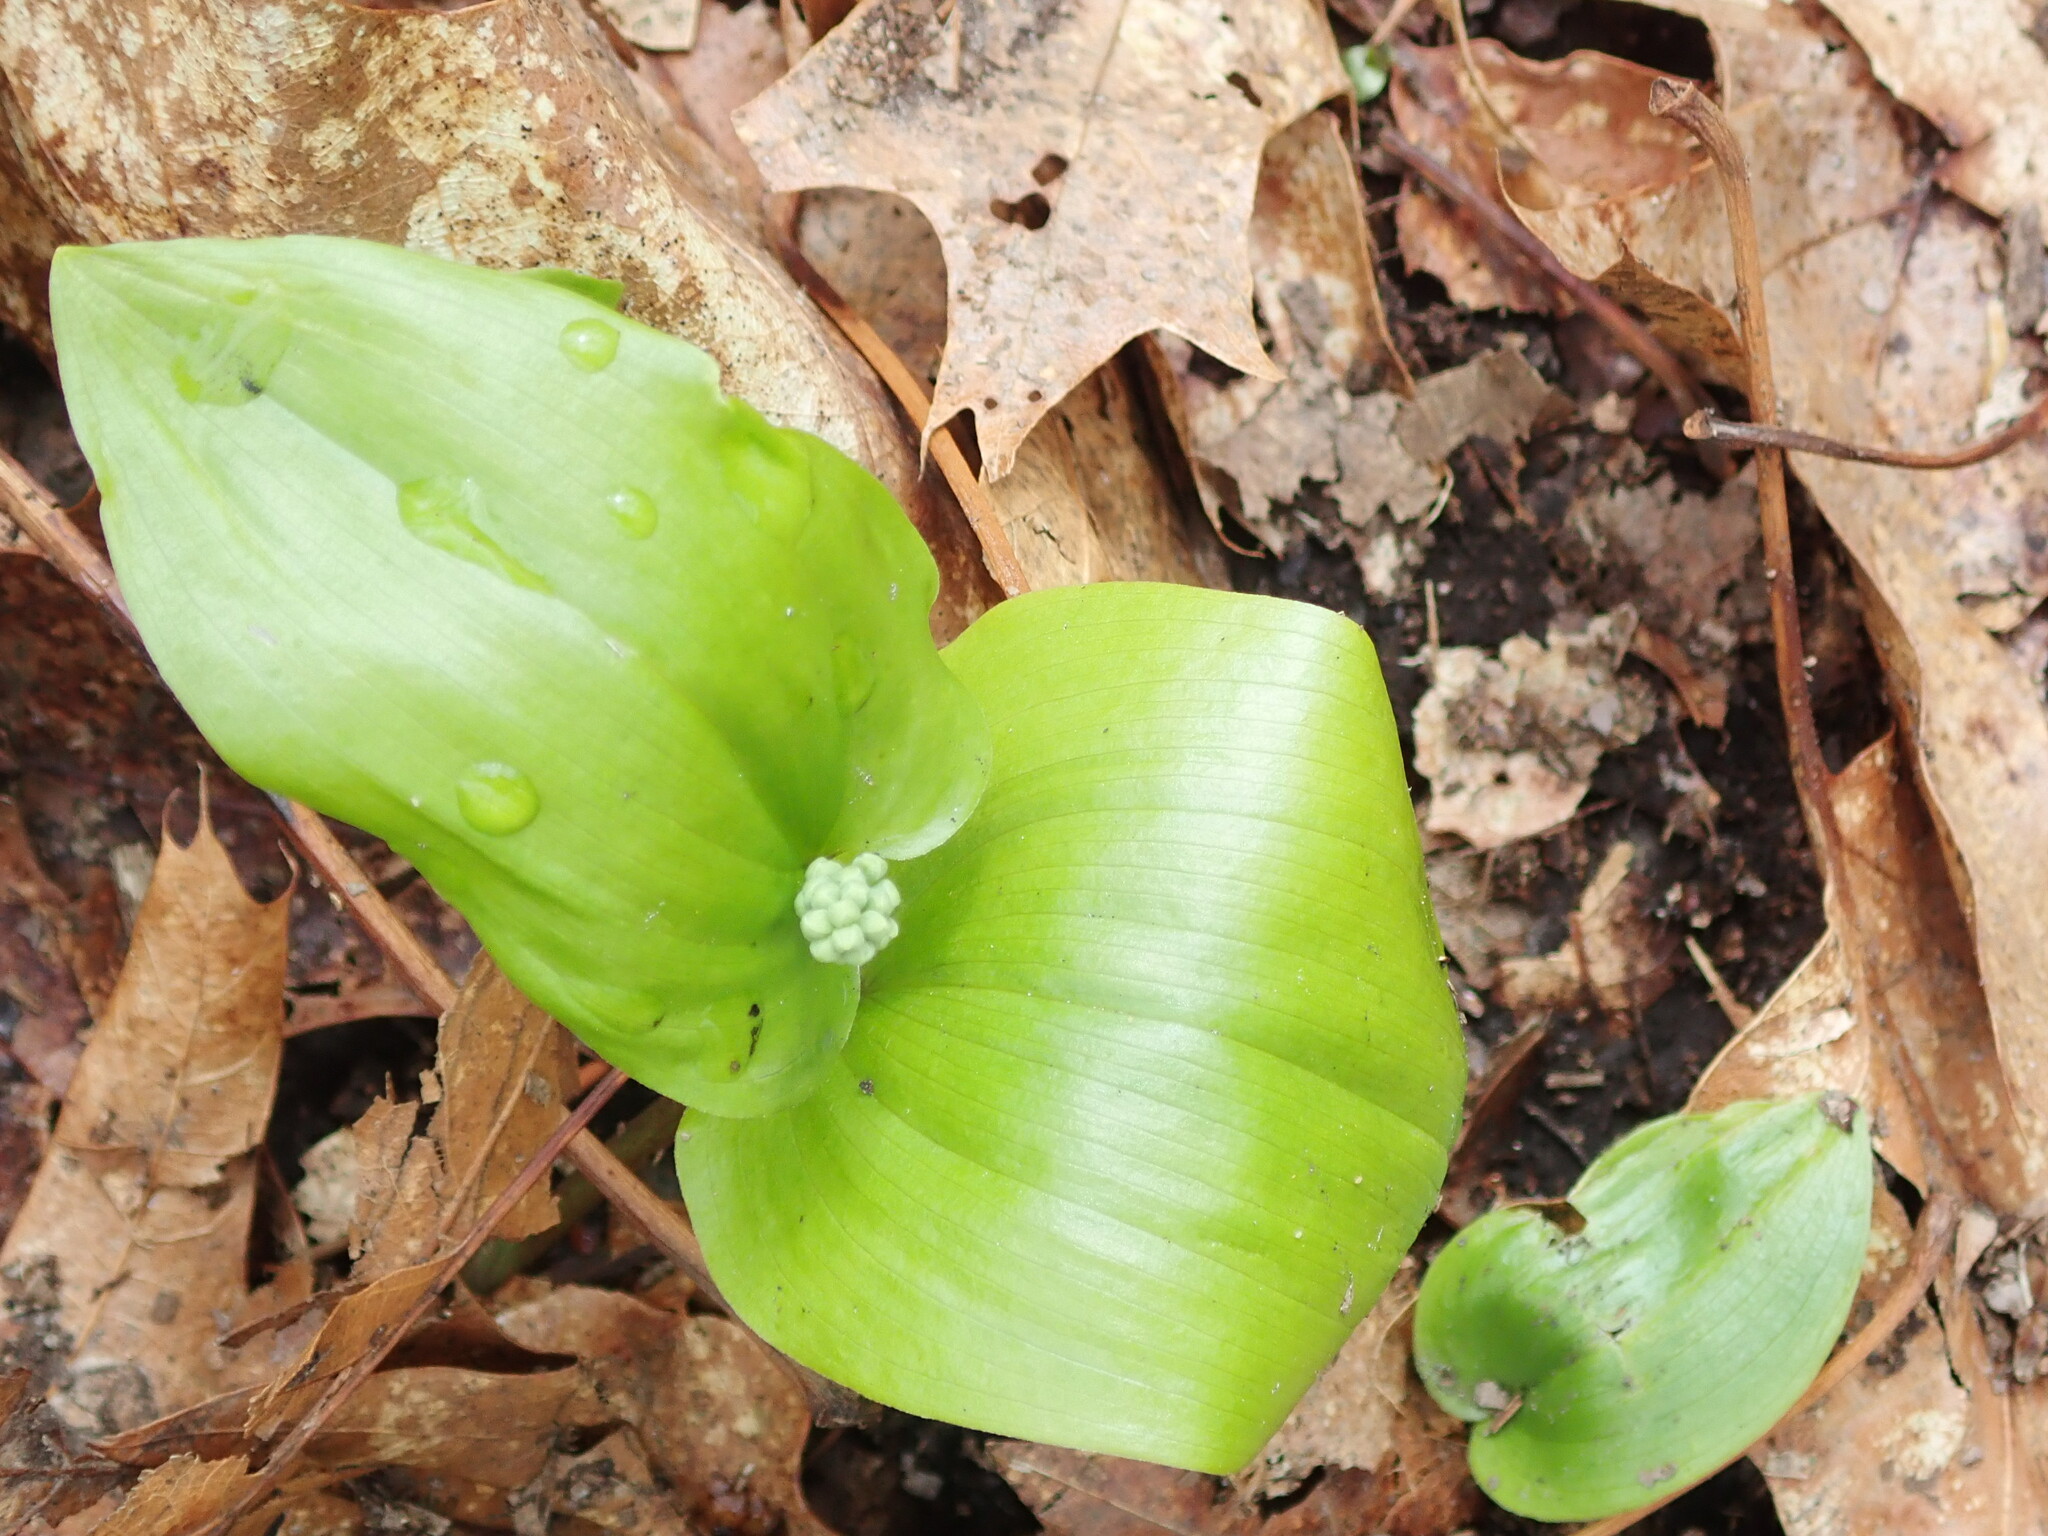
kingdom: Plantae
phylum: Tracheophyta
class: Liliopsida
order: Asparagales
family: Asparagaceae
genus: Maianthemum
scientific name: Maianthemum canadense
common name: False lily-of-the-valley
